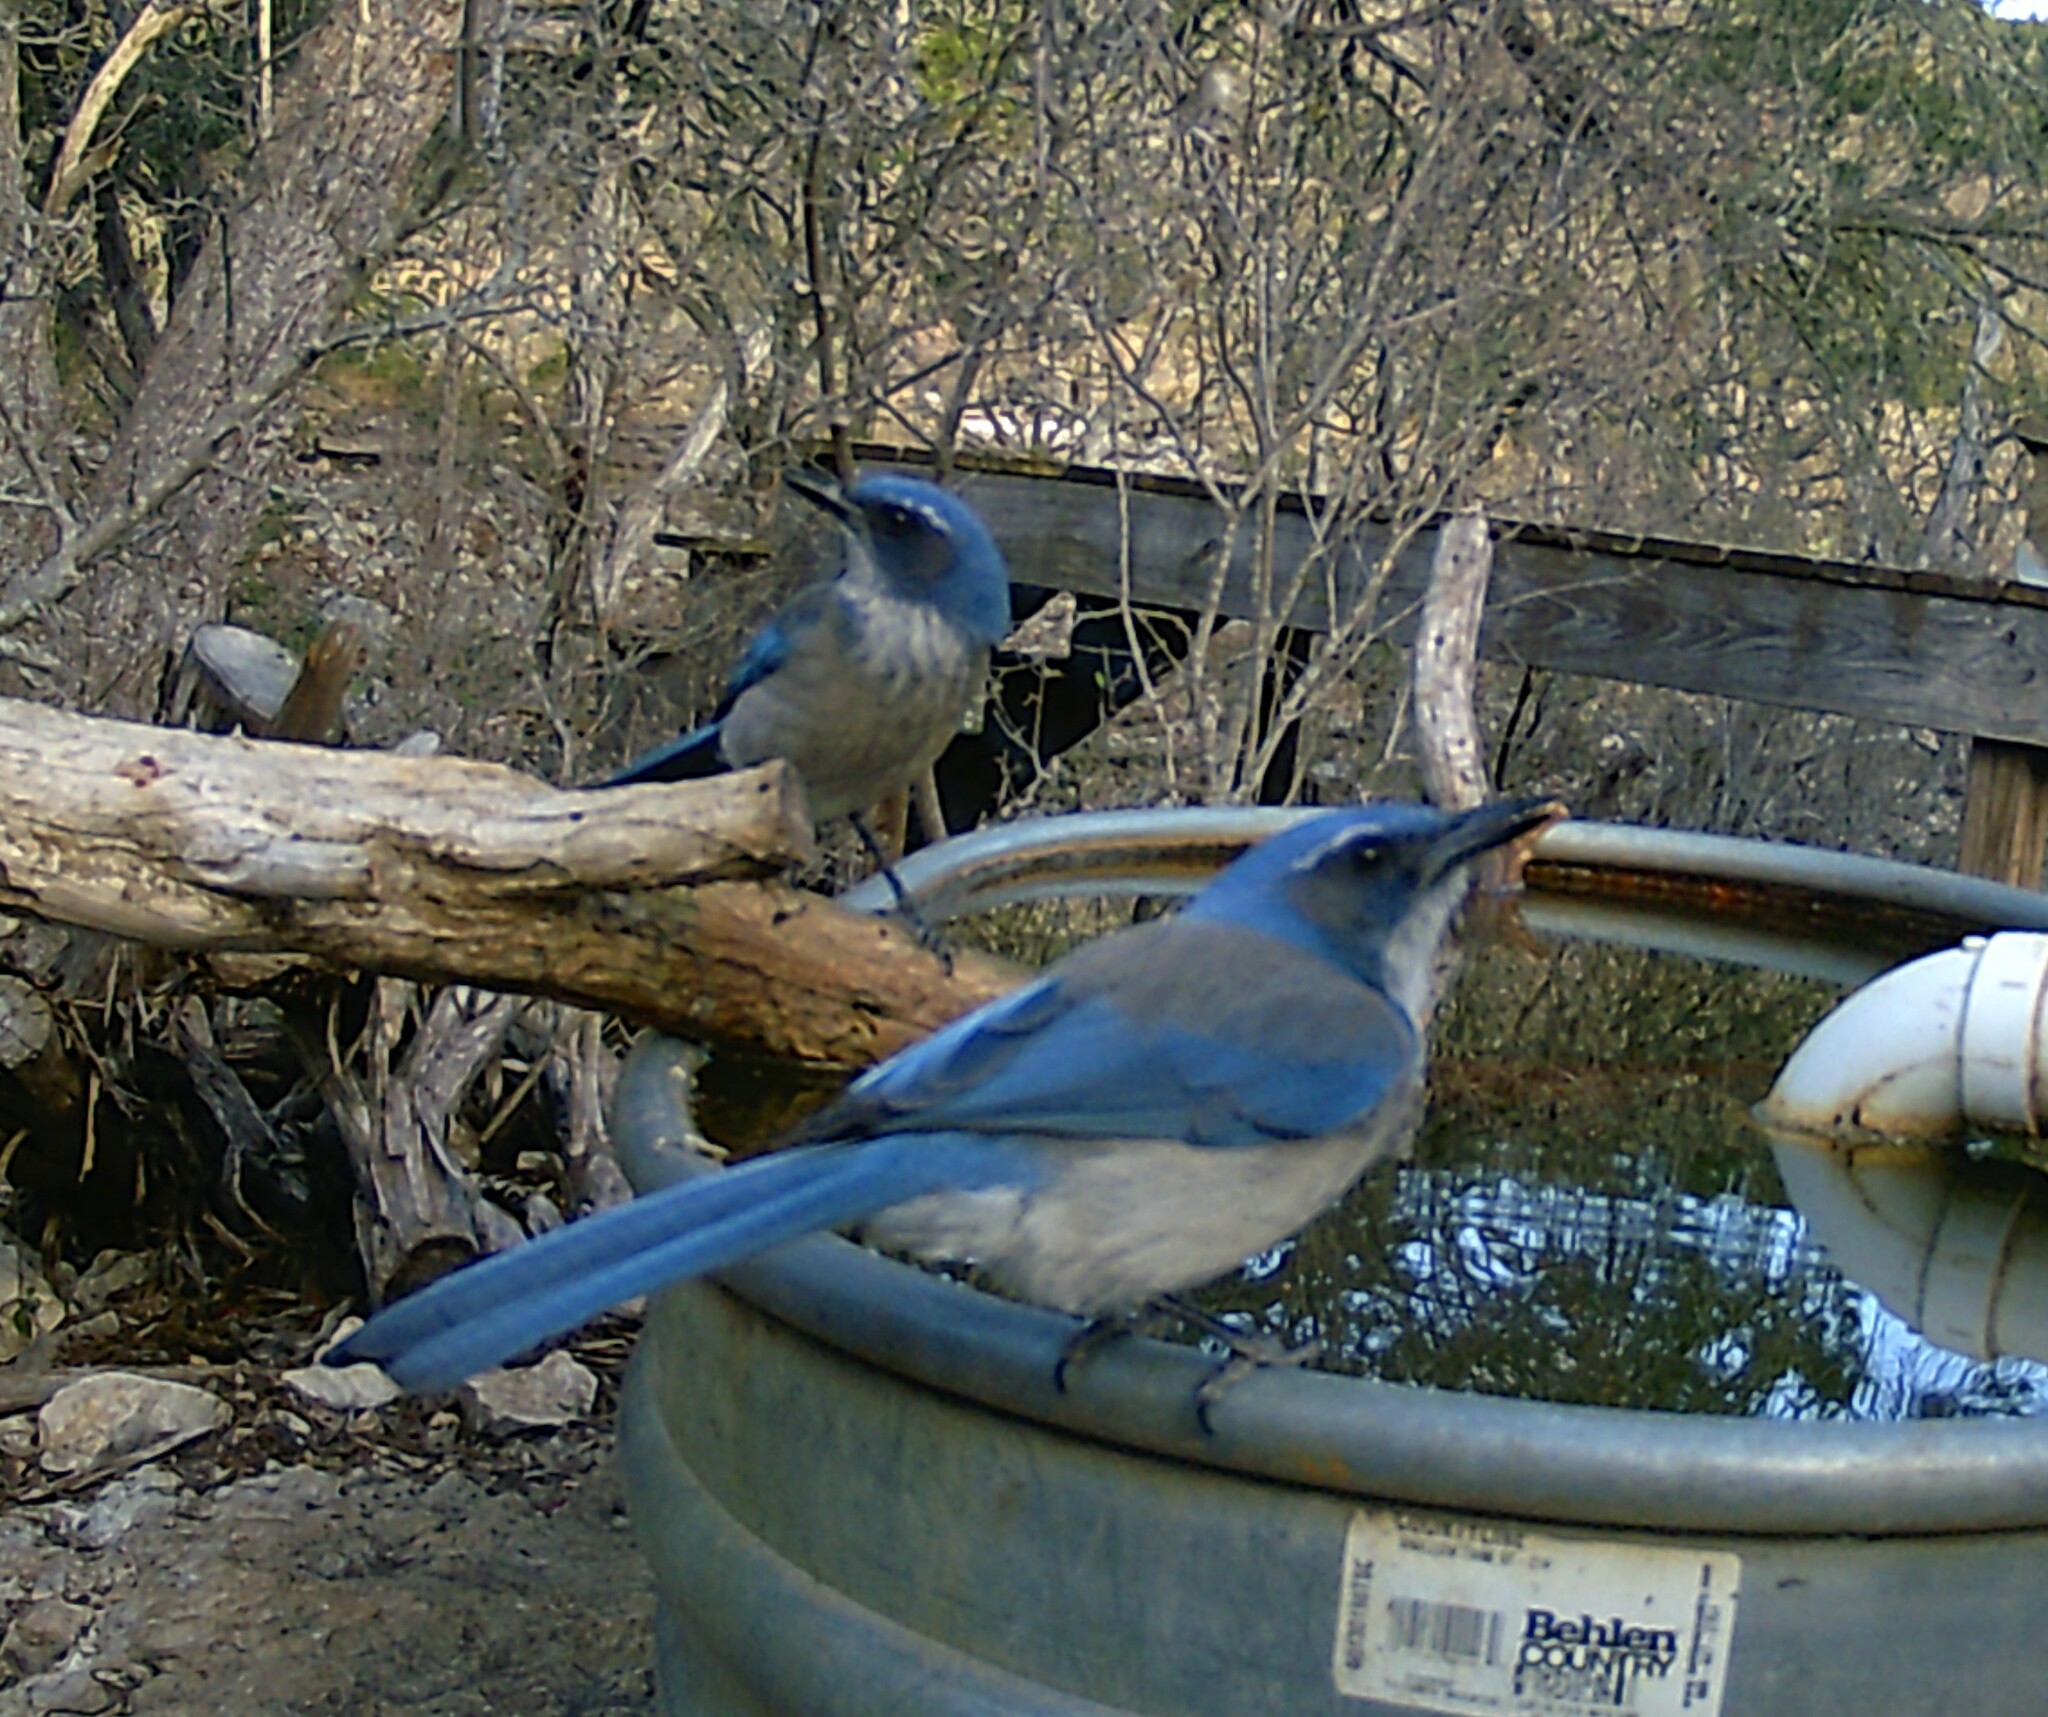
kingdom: Animalia
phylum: Chordata
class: Aves
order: Passeriformes
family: Corvidae
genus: Aphelocoma
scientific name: Aphelocoma woodhouseii
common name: Woodhouse's scrub-jay
